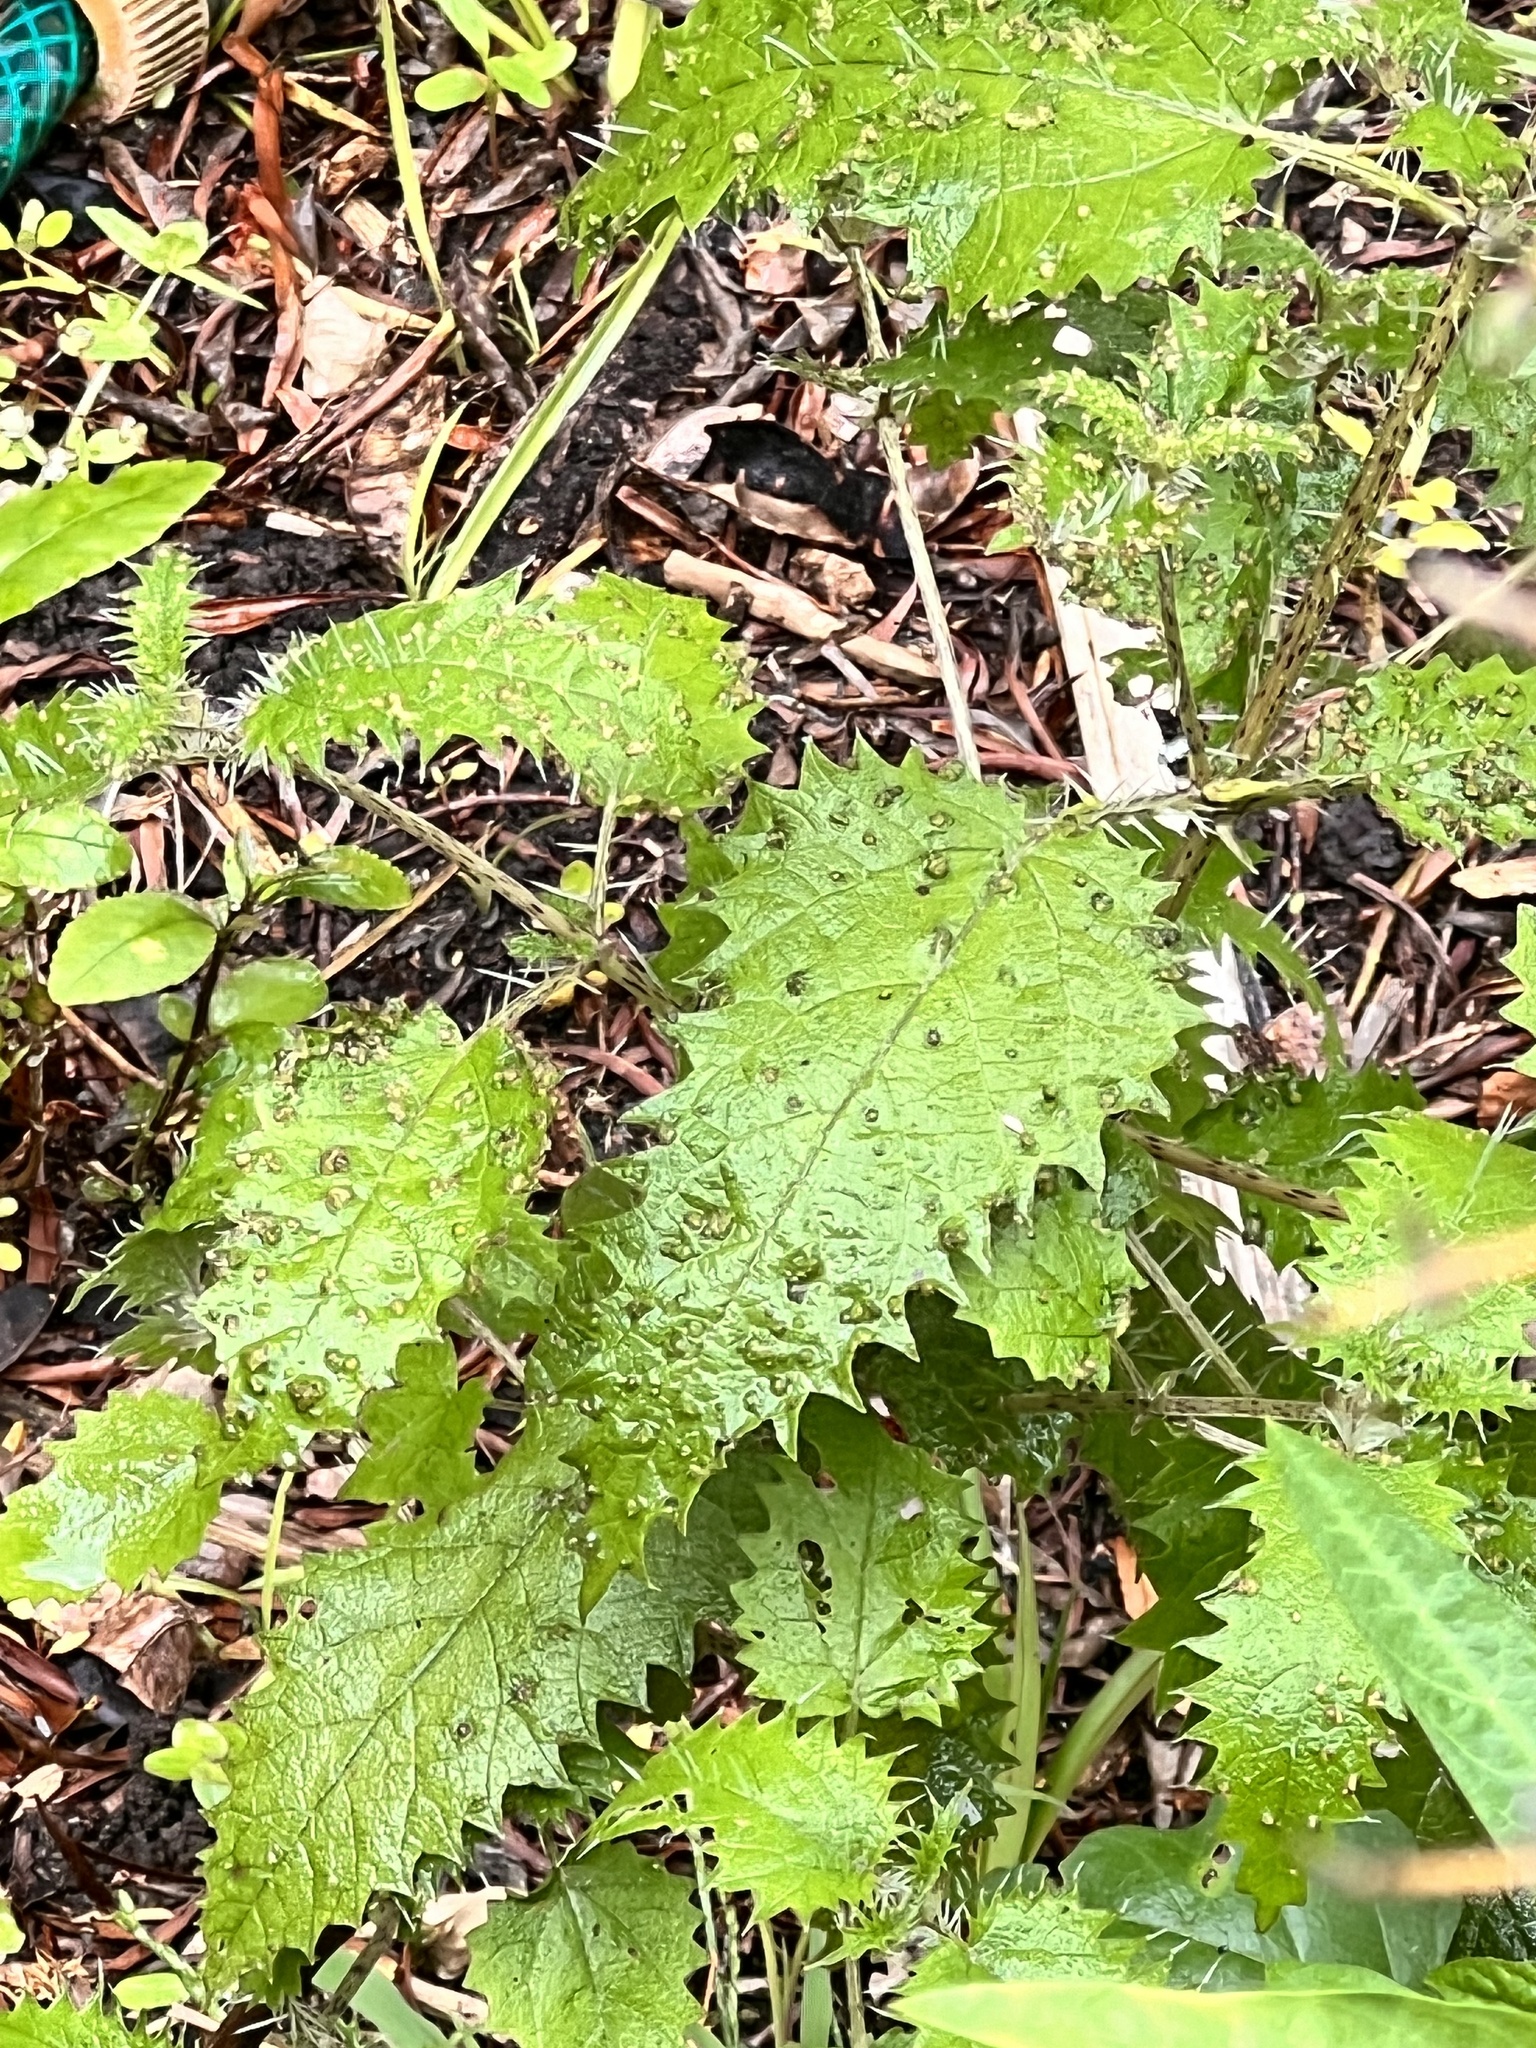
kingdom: Plantae
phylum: Tracheophyta
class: Magnoliopsida
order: Rosales
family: Urticaceae
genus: Urtica
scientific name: Urtica ferox
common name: Tree nettle
